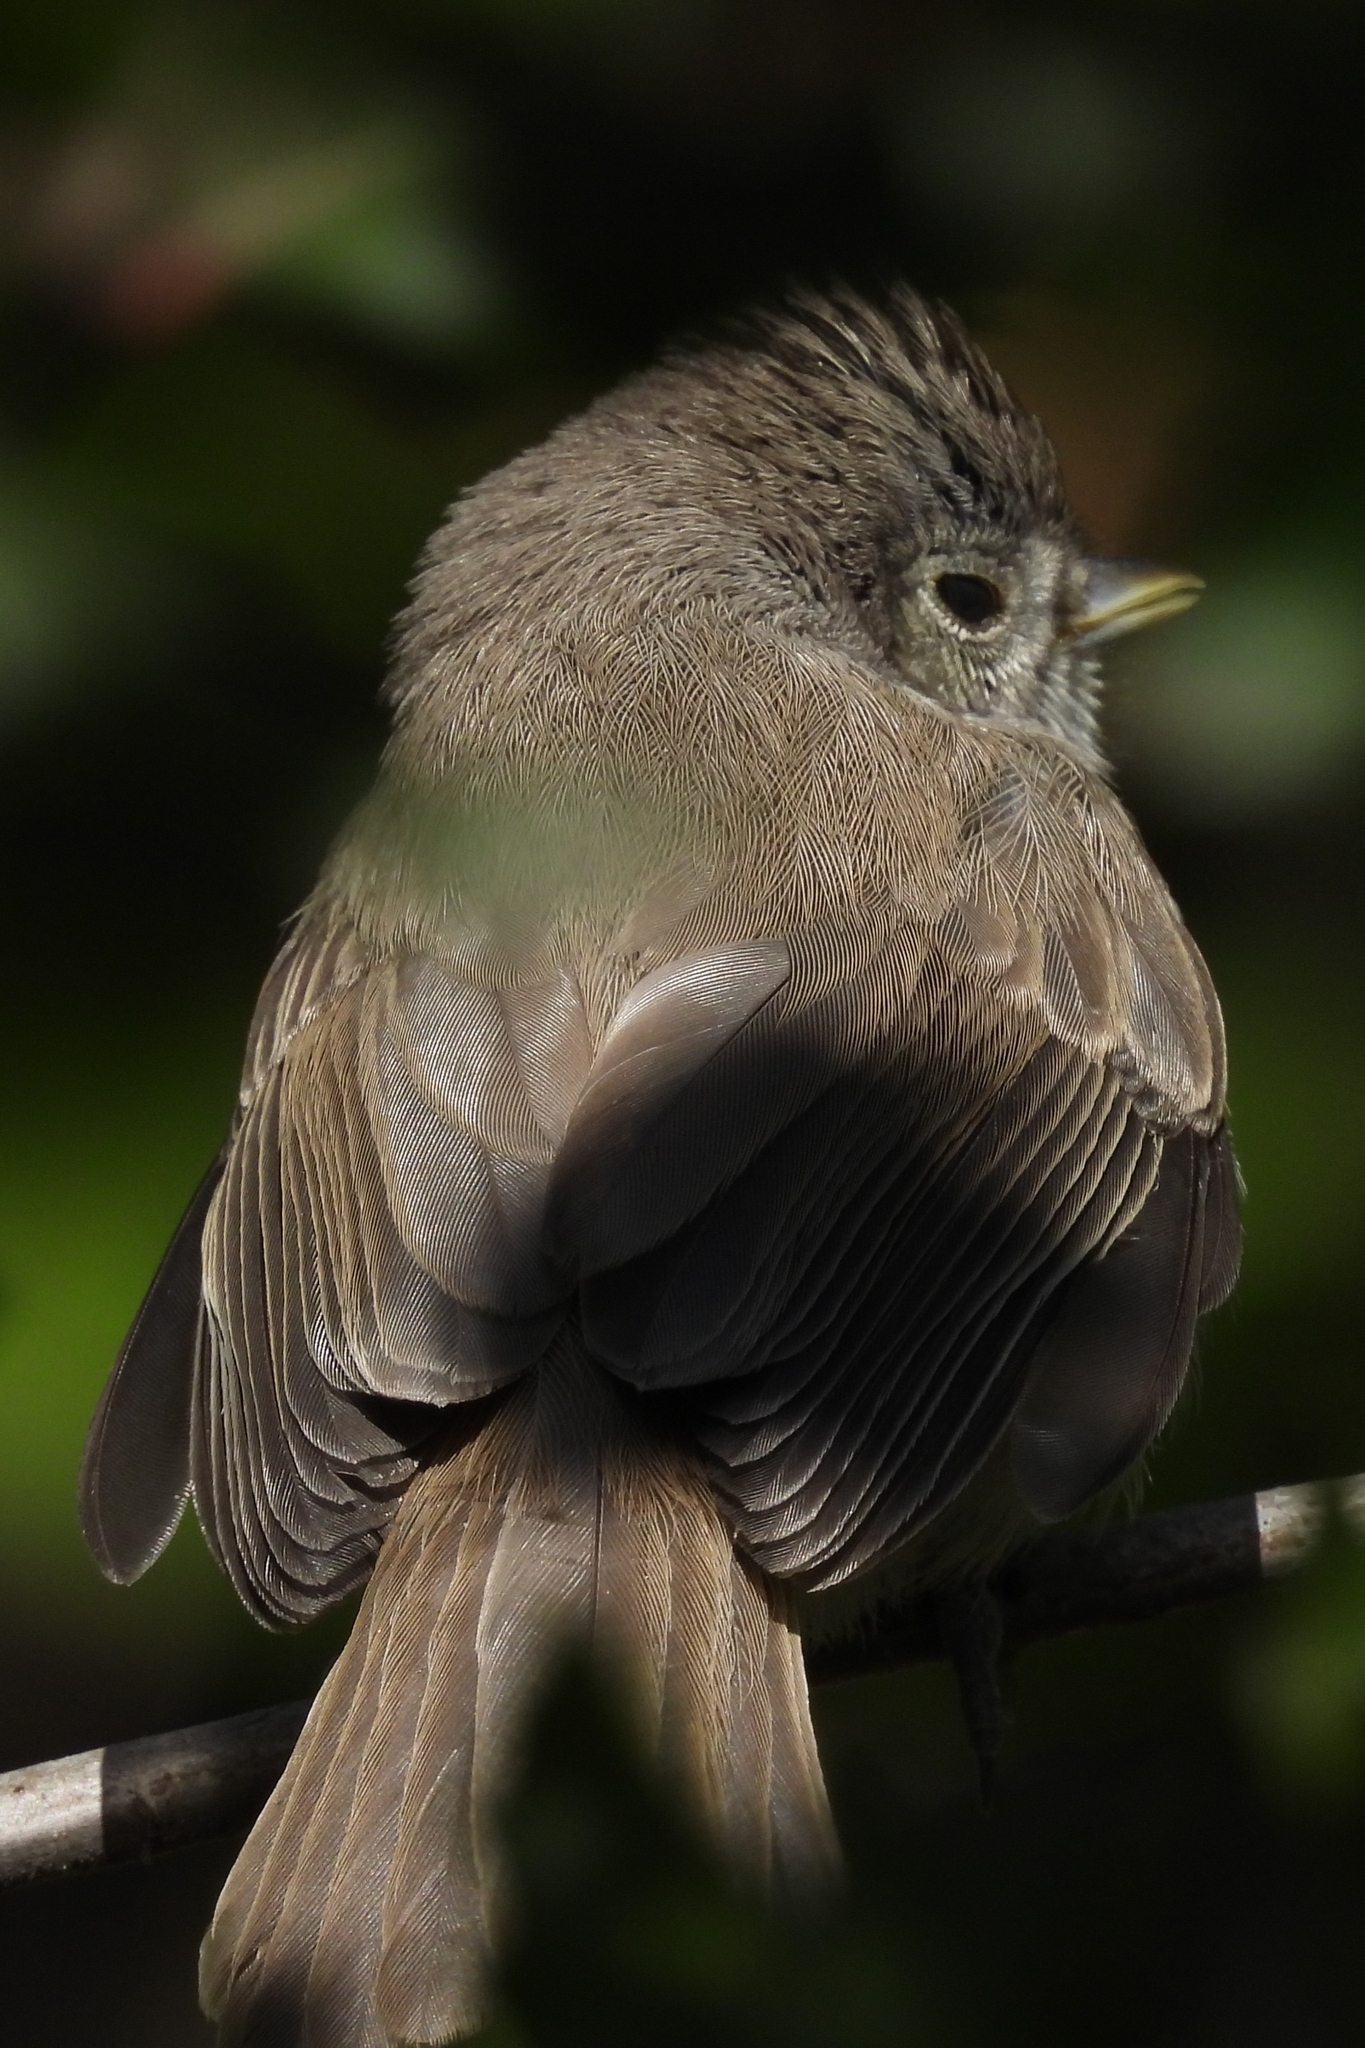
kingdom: Animalia
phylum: Chordata
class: Aves
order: Passeriformes
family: Paridae
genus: Baeolophus
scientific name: Baeolophus inornatus
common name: Oak titmouse
